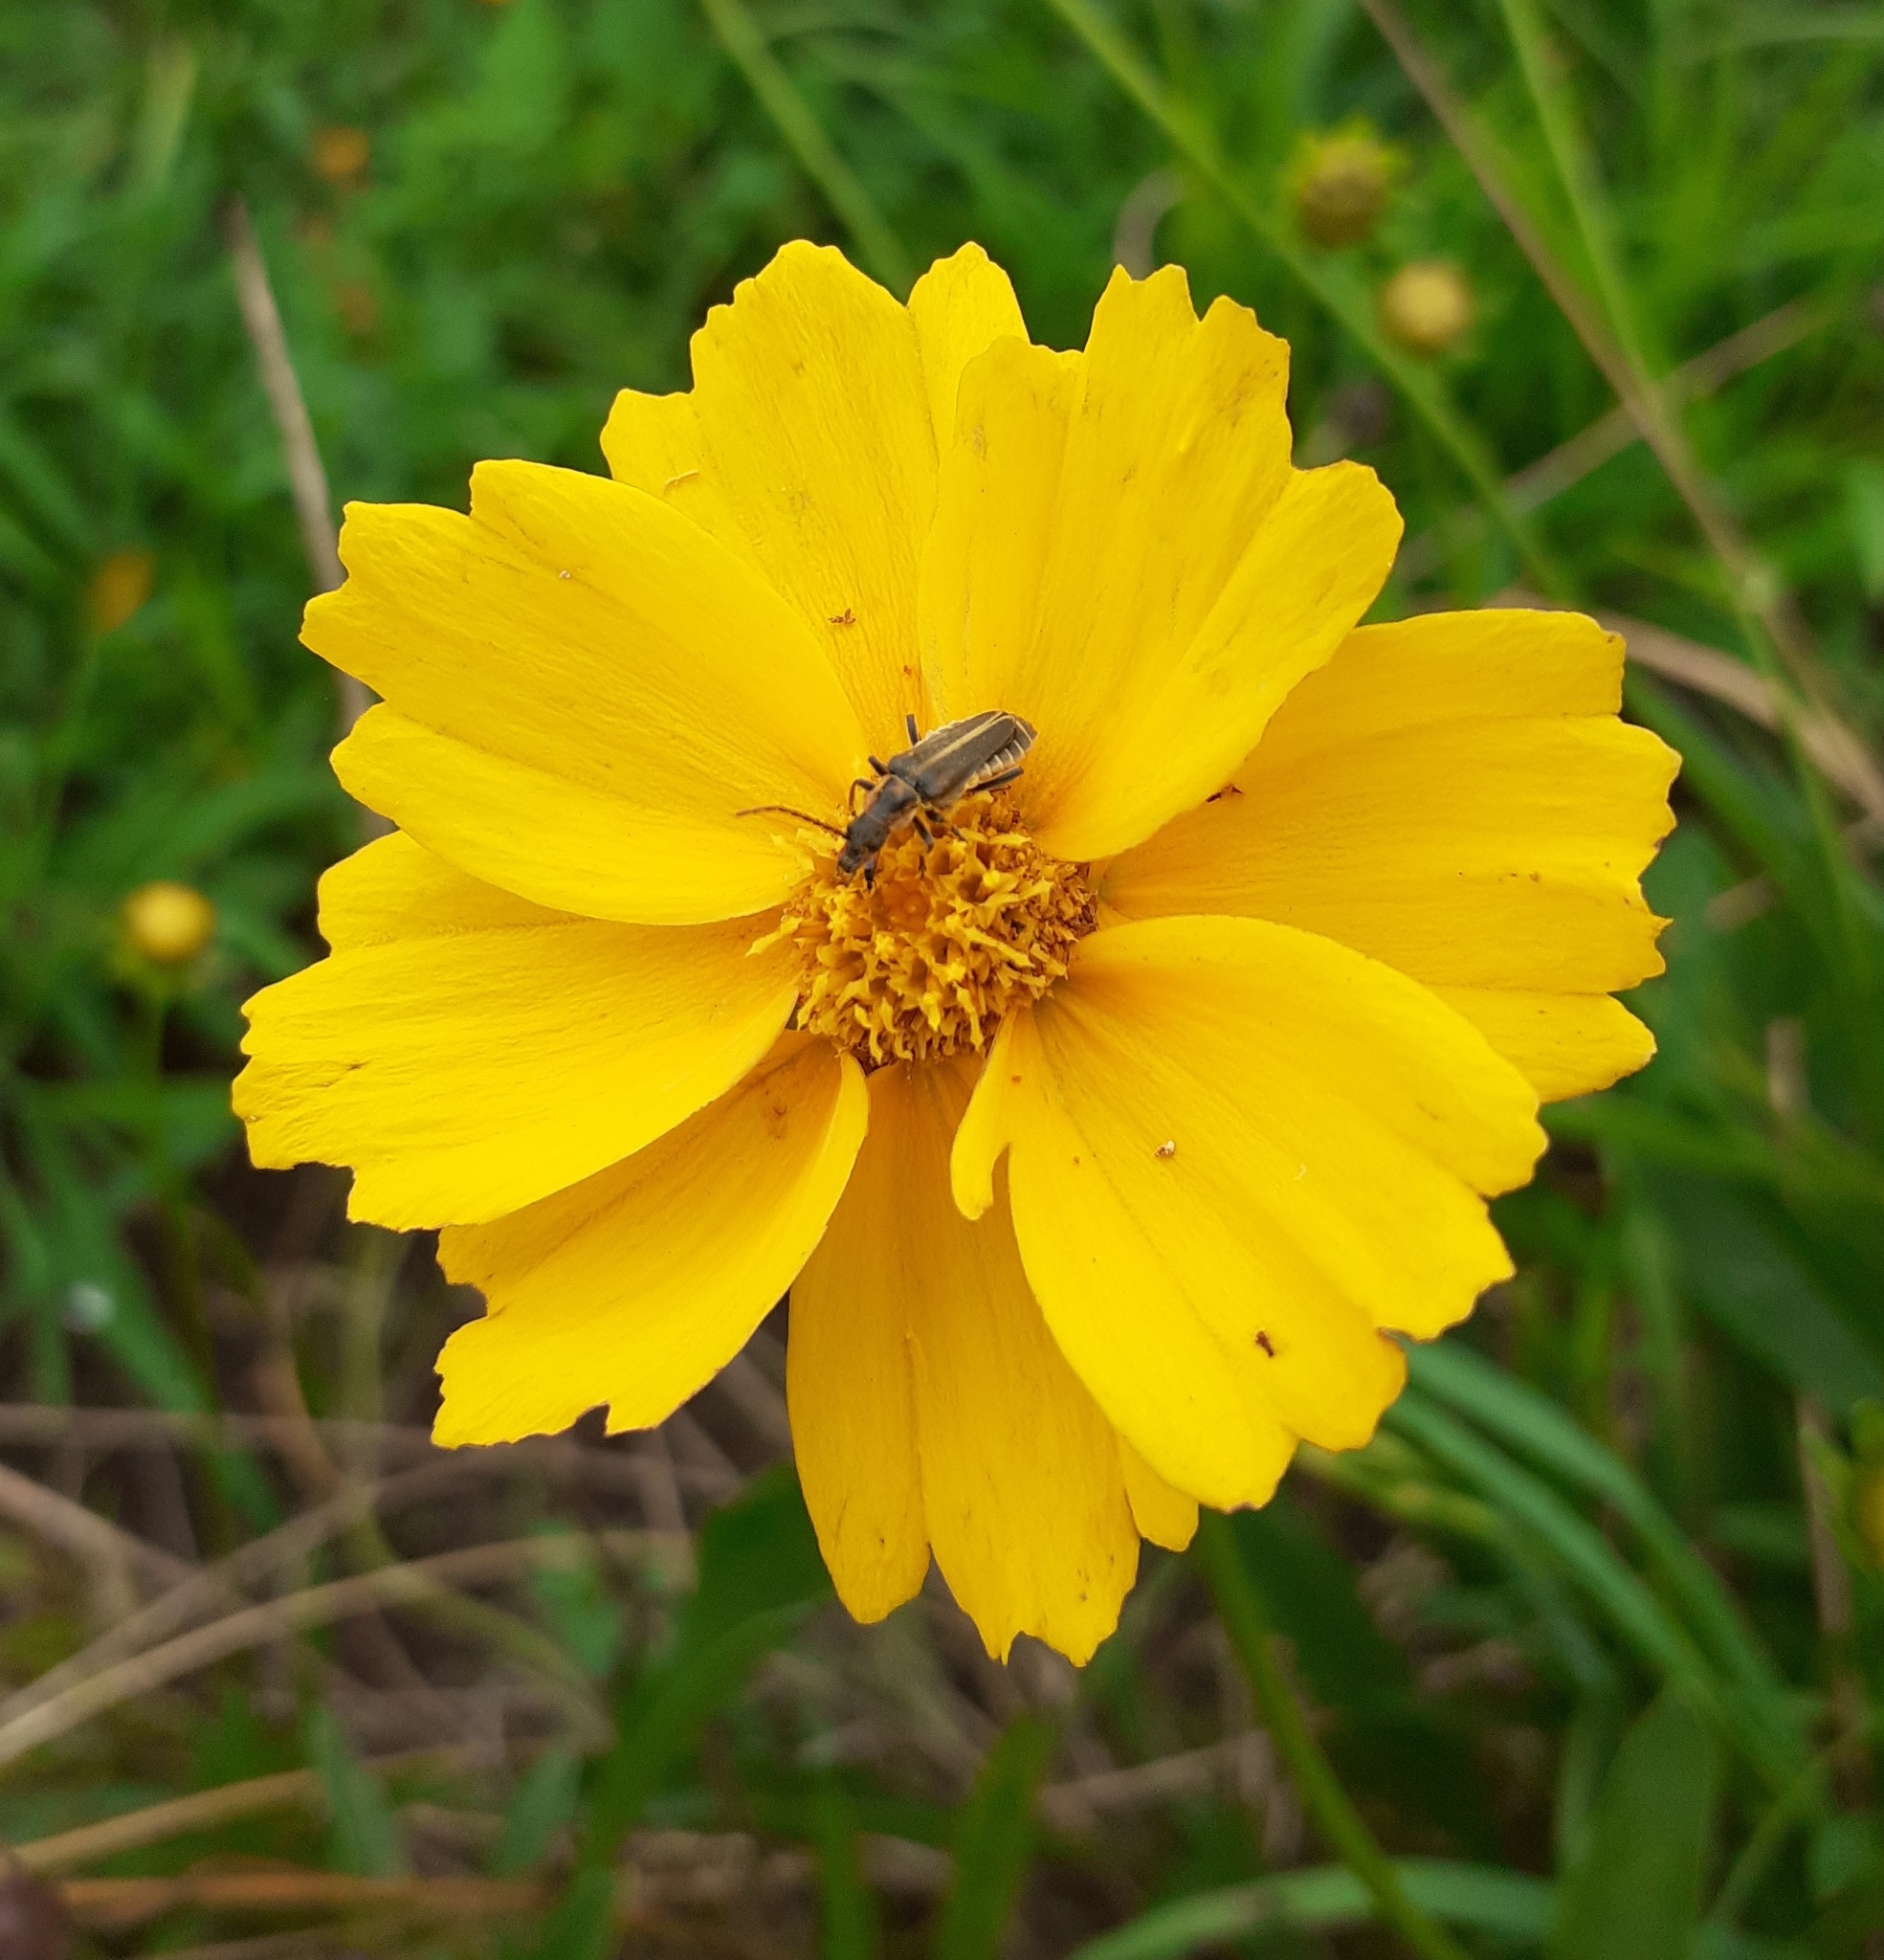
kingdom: Animalia
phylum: Arthropoda
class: Insecta
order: Coleoptera
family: Cantharidae
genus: Chauliognathus
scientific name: Chauliognathus
